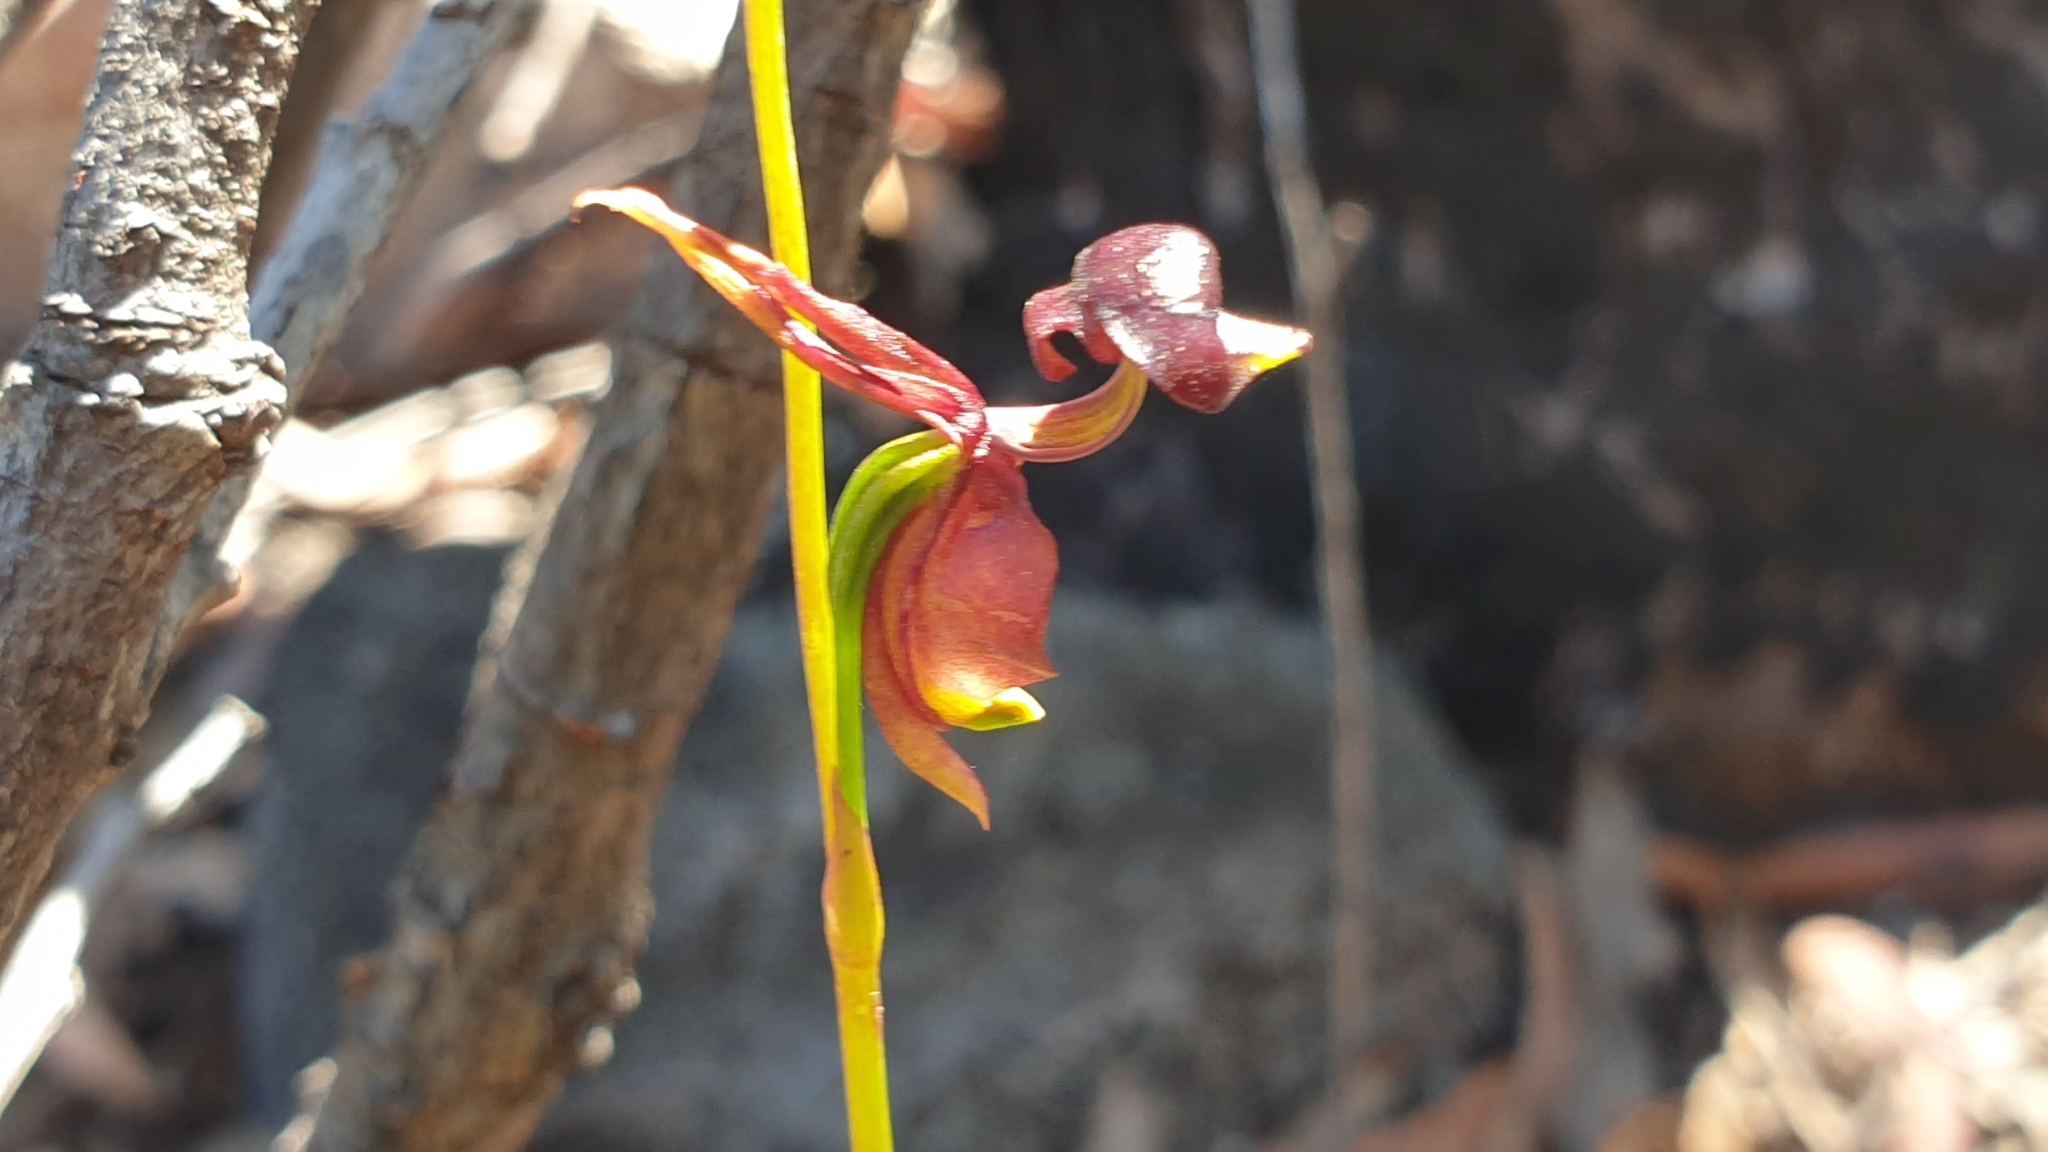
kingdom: Plantae
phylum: Tracheophyta
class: Liliopsida
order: Asparagales
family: Orchidaceae
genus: Caleana
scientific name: Caleana major
